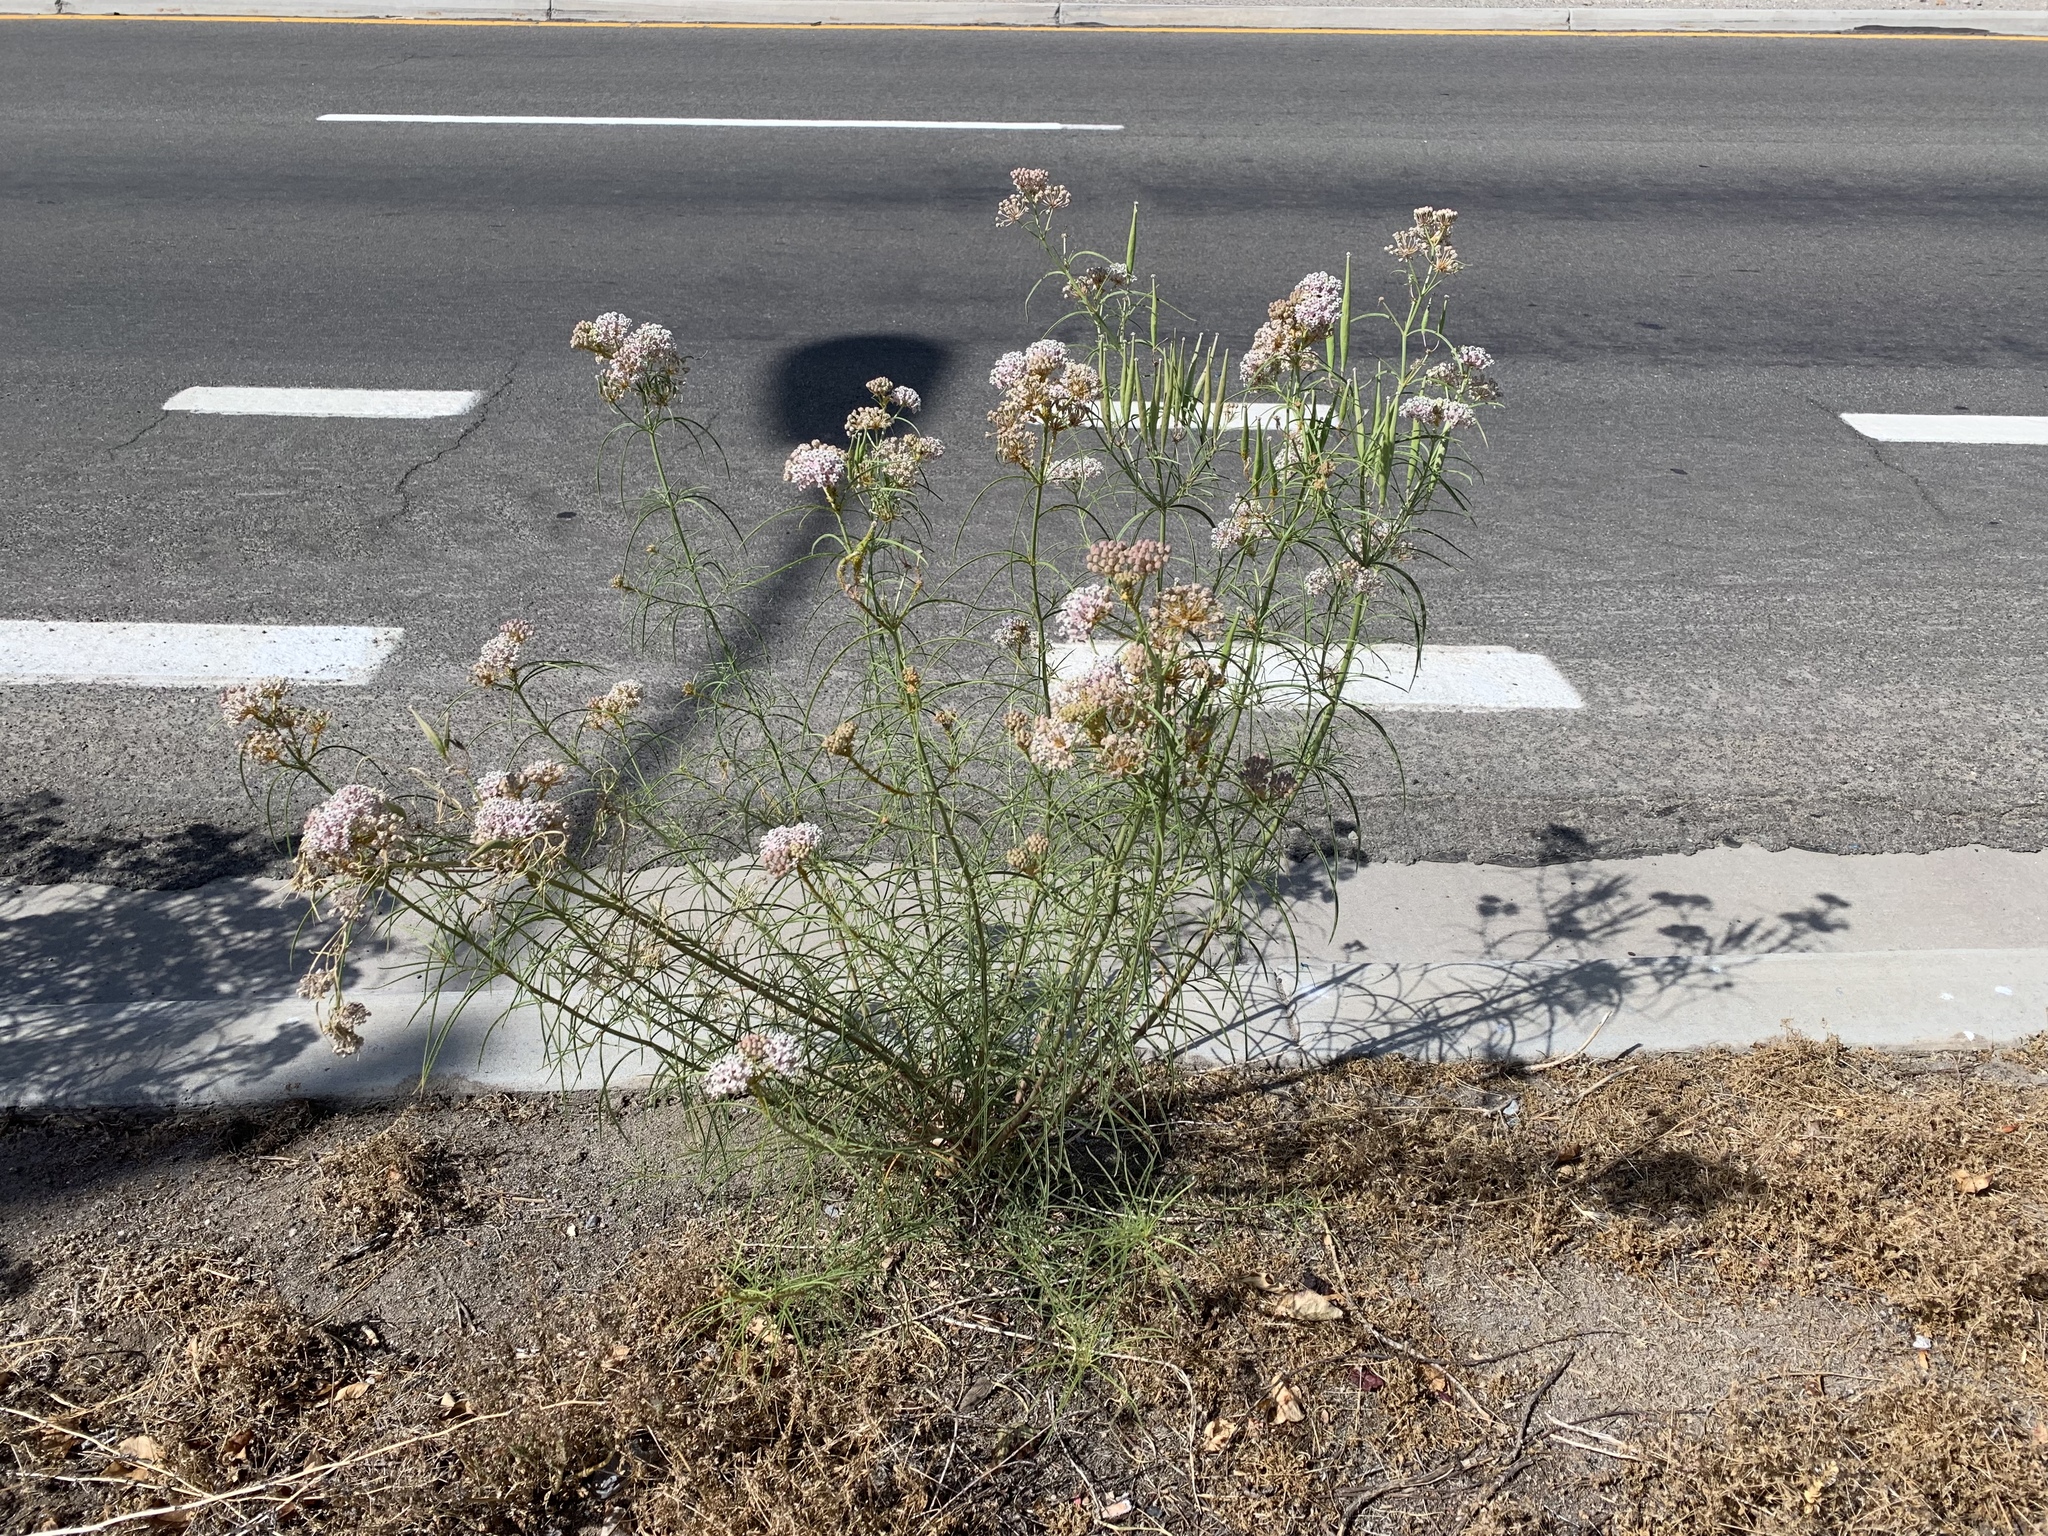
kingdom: Plantae
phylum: Tracheophyta
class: Magnoliopsida
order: Gentianales
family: Apocynaceae
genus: Asclepias
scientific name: Asclepias fascicularis
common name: Mexican milkweed
